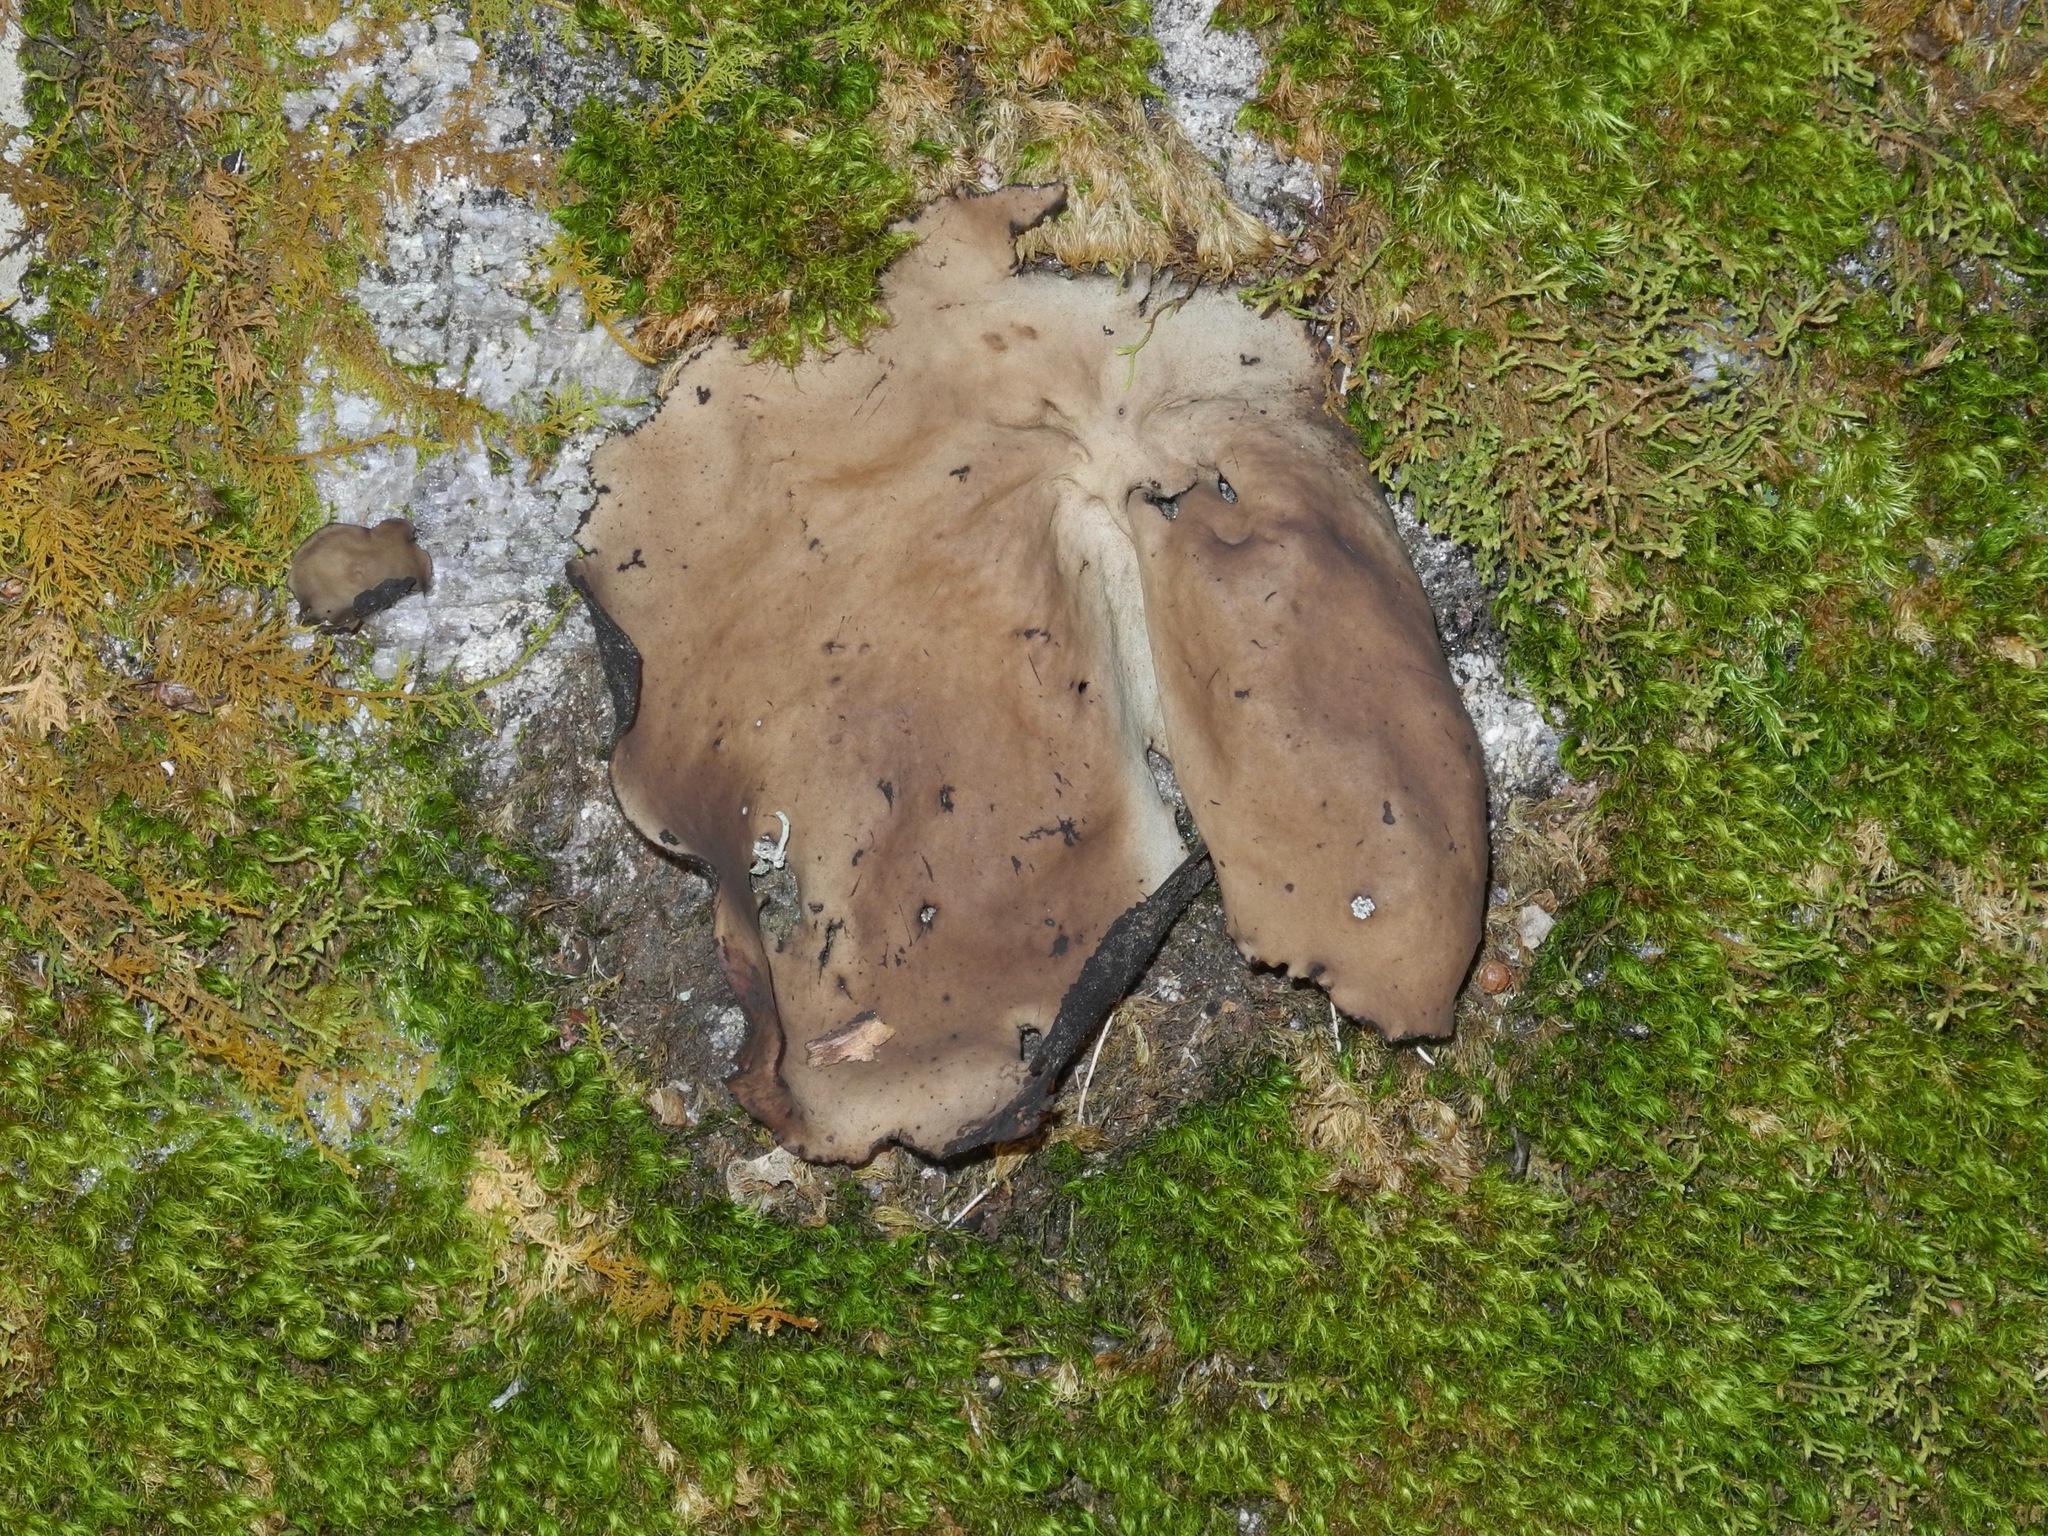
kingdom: Fungi
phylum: Ascomycota
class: Lecanoromycetes
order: Umbilicariales
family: Umbilicariaceae
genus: Umbilicaria
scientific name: Umbilicaria mammulata
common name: Smooth rock tripe
